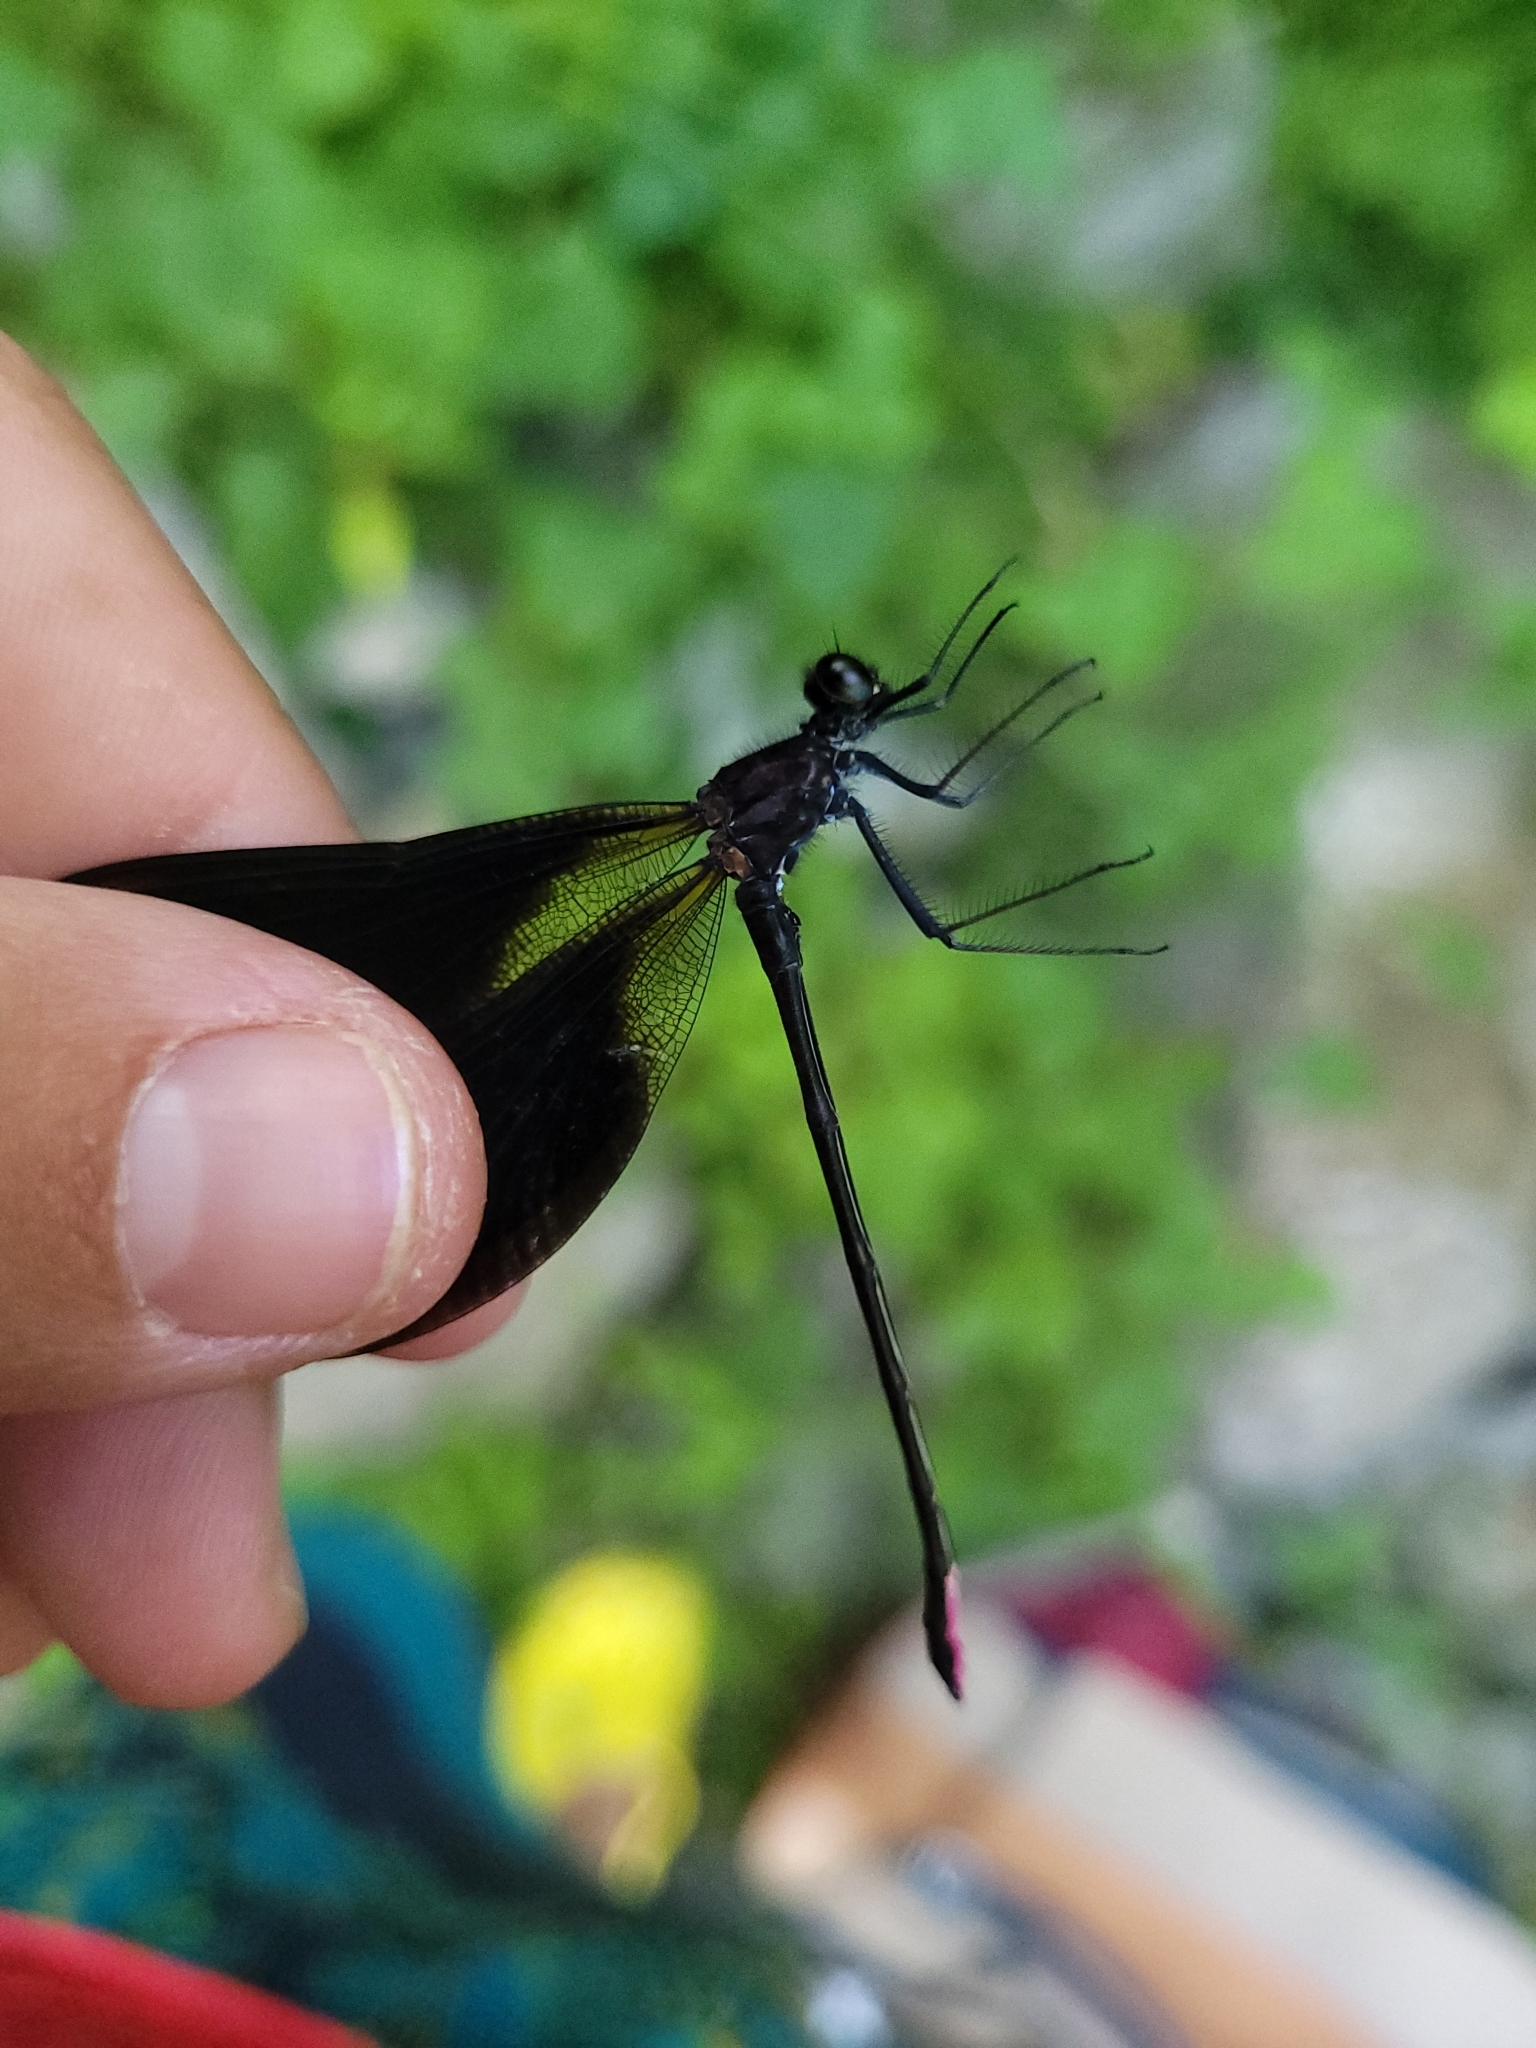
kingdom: Animalia
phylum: Arthropoda
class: Insecta
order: Odonata
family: Calopterygidae
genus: Calopteryx
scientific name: Calopteryx haemorrhoidalis
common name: Copper demoiselle
